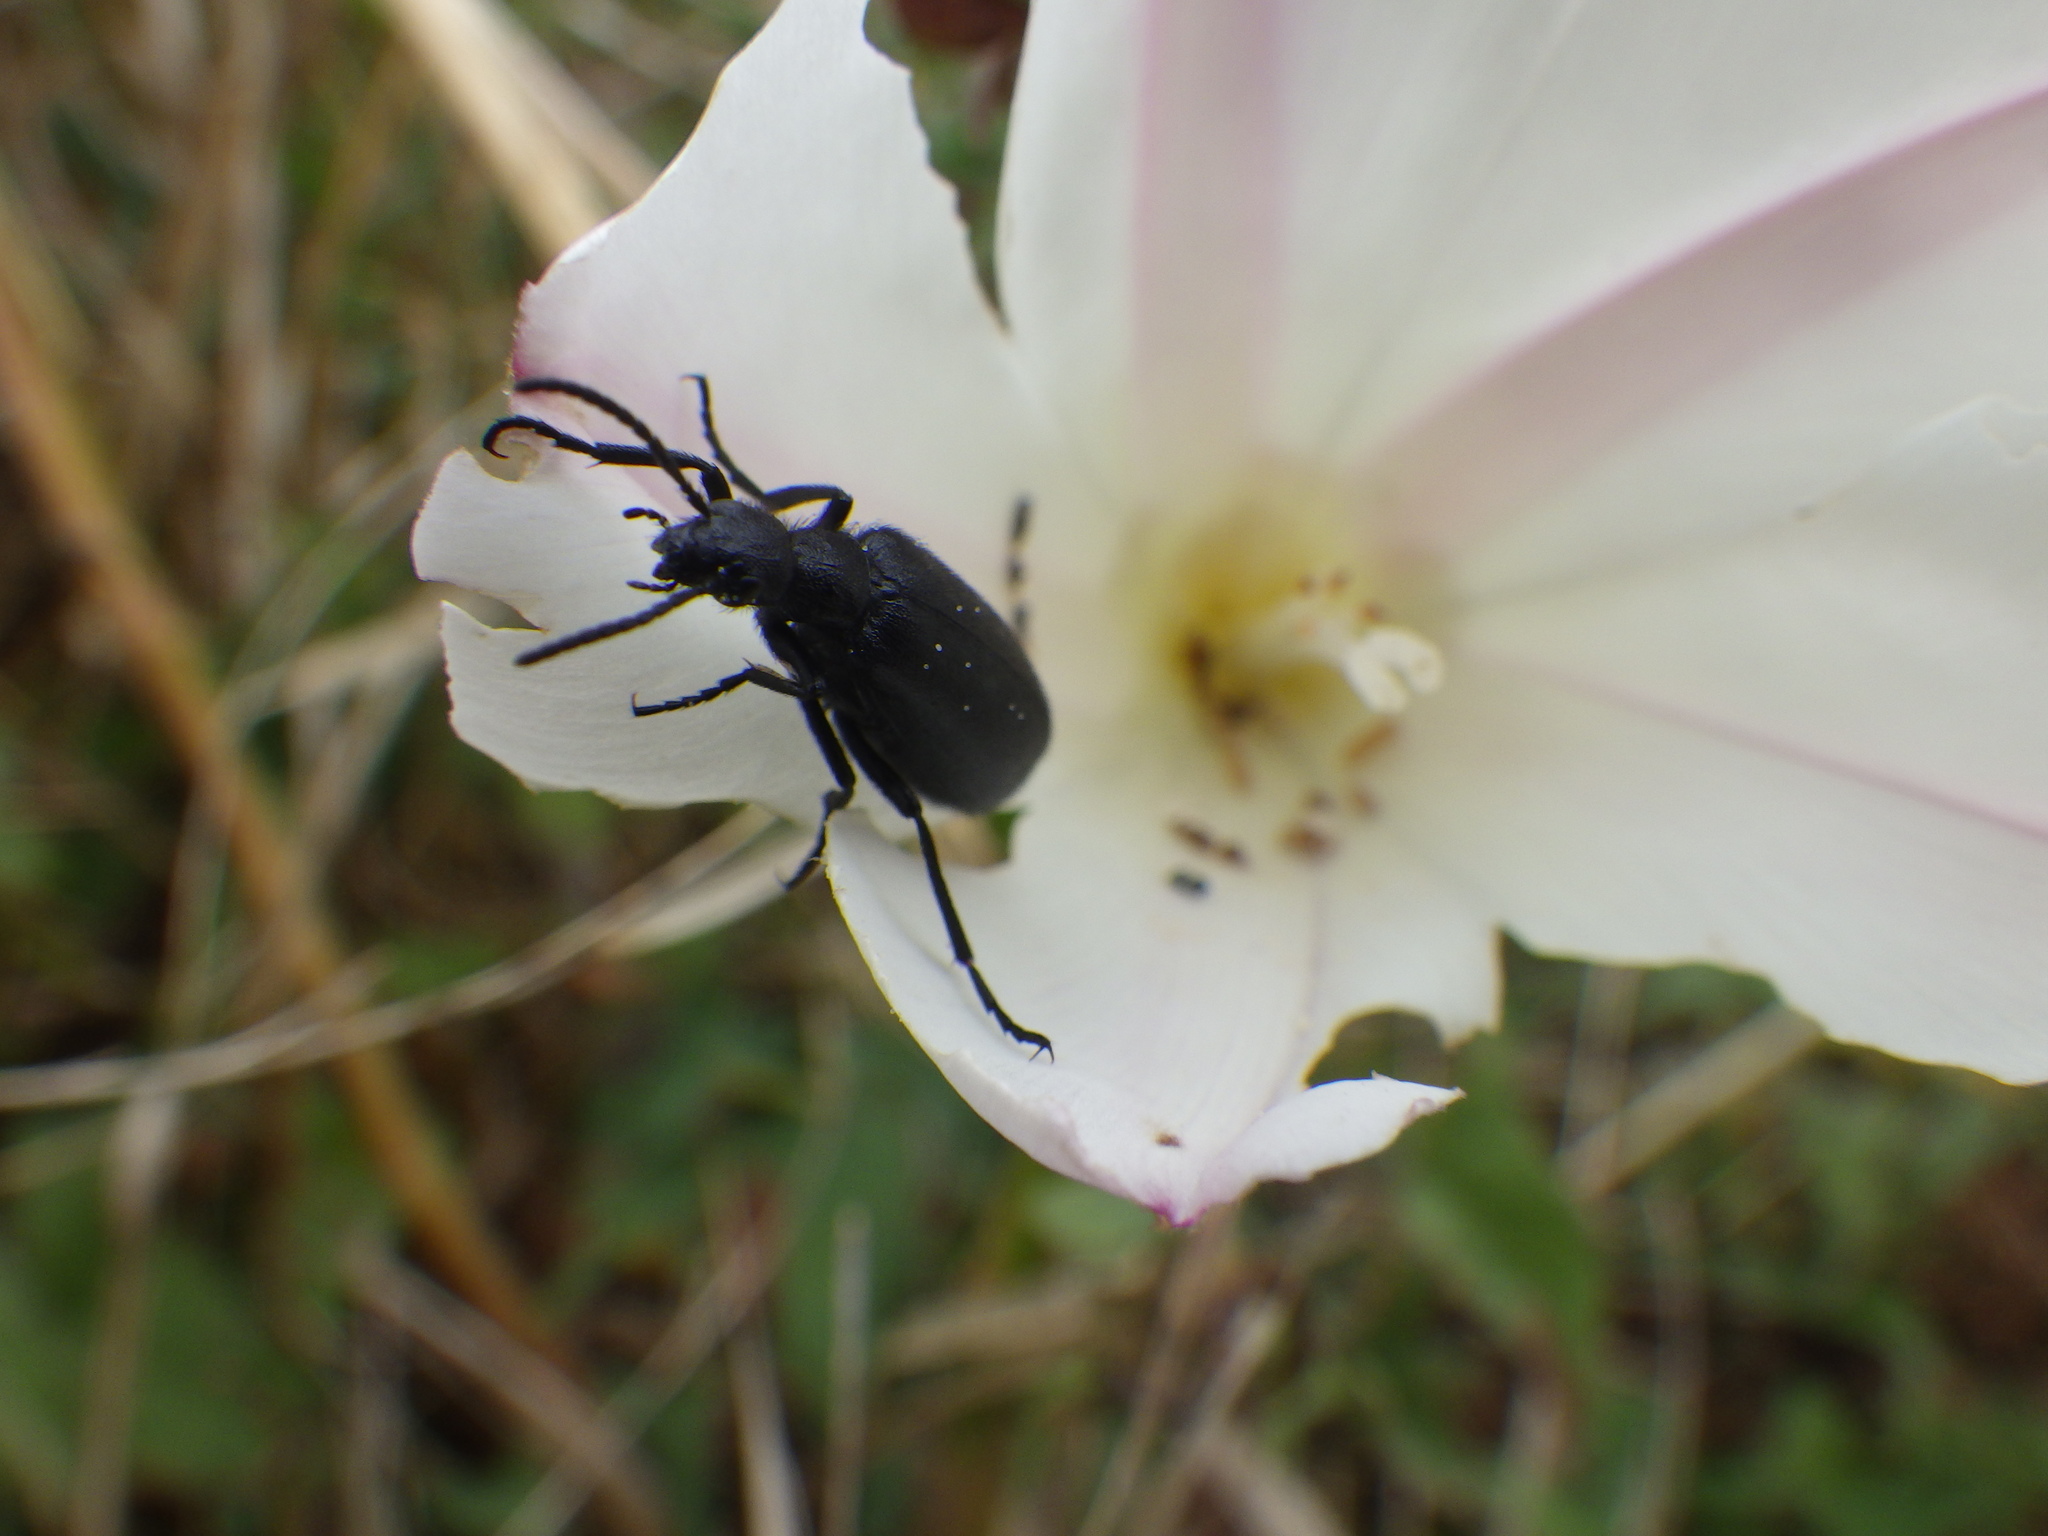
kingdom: Animalia
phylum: Arthropoda
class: Insecta
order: Coleoptera
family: Meloidae
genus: Epicauta
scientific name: Epicauta puncticollis
